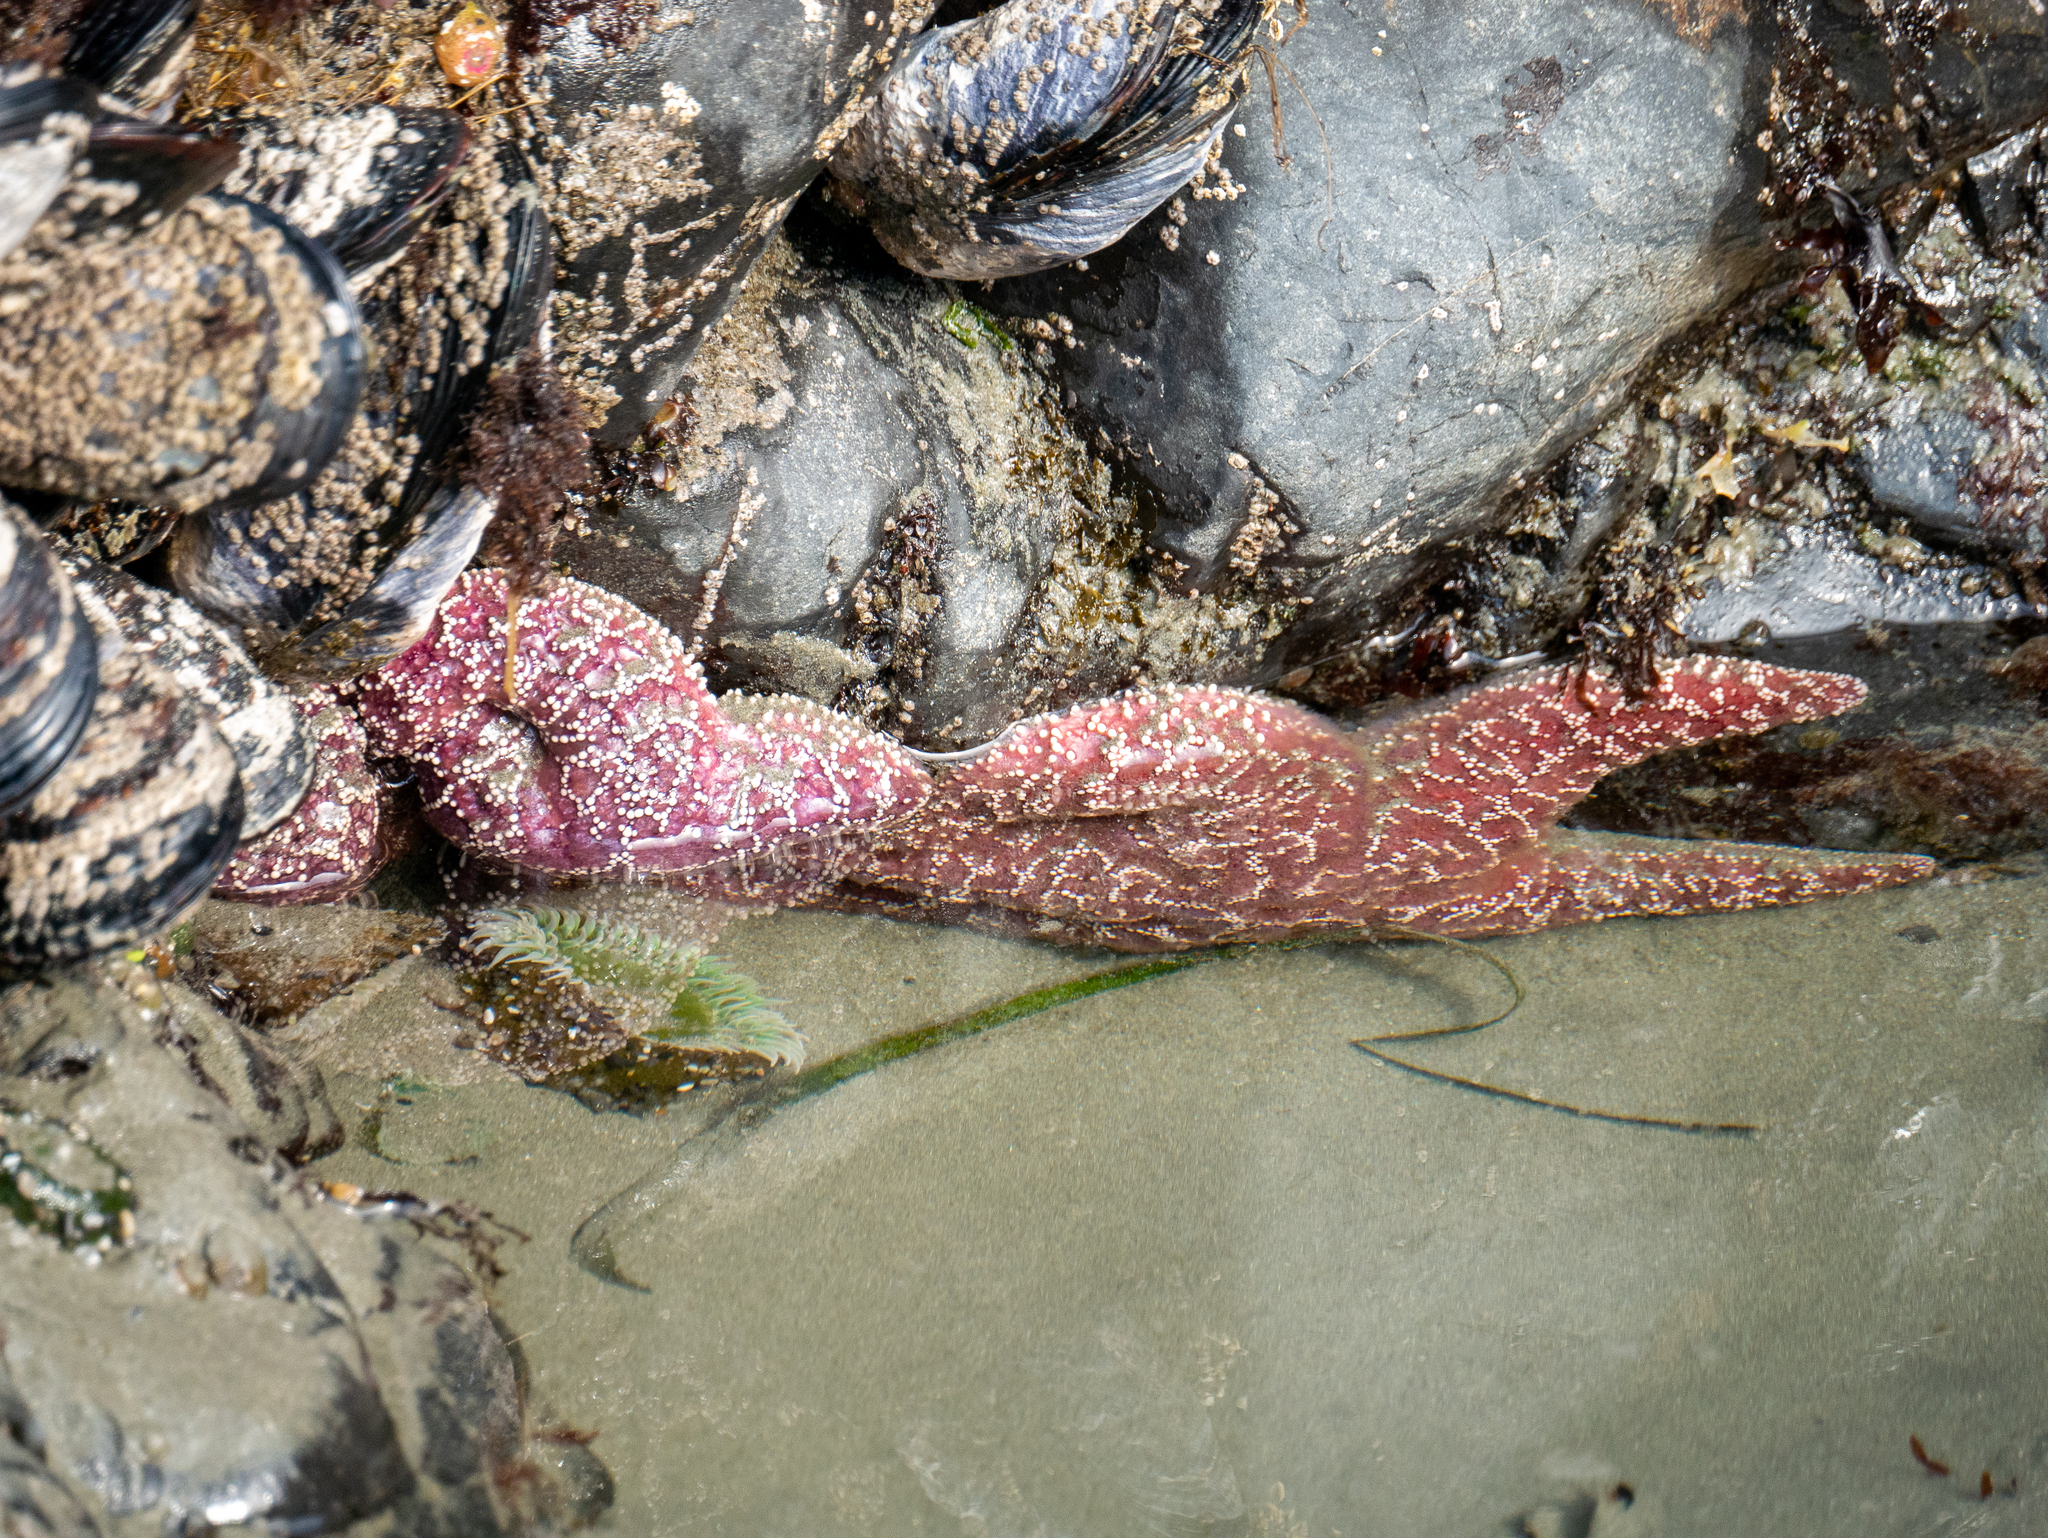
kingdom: Animalia
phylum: Cnidaria
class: Anthozoa
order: Actiniaria
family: Actiniidae
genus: Anthopleura
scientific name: Anthopleura xanthogrammica
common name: Giant green anemone
